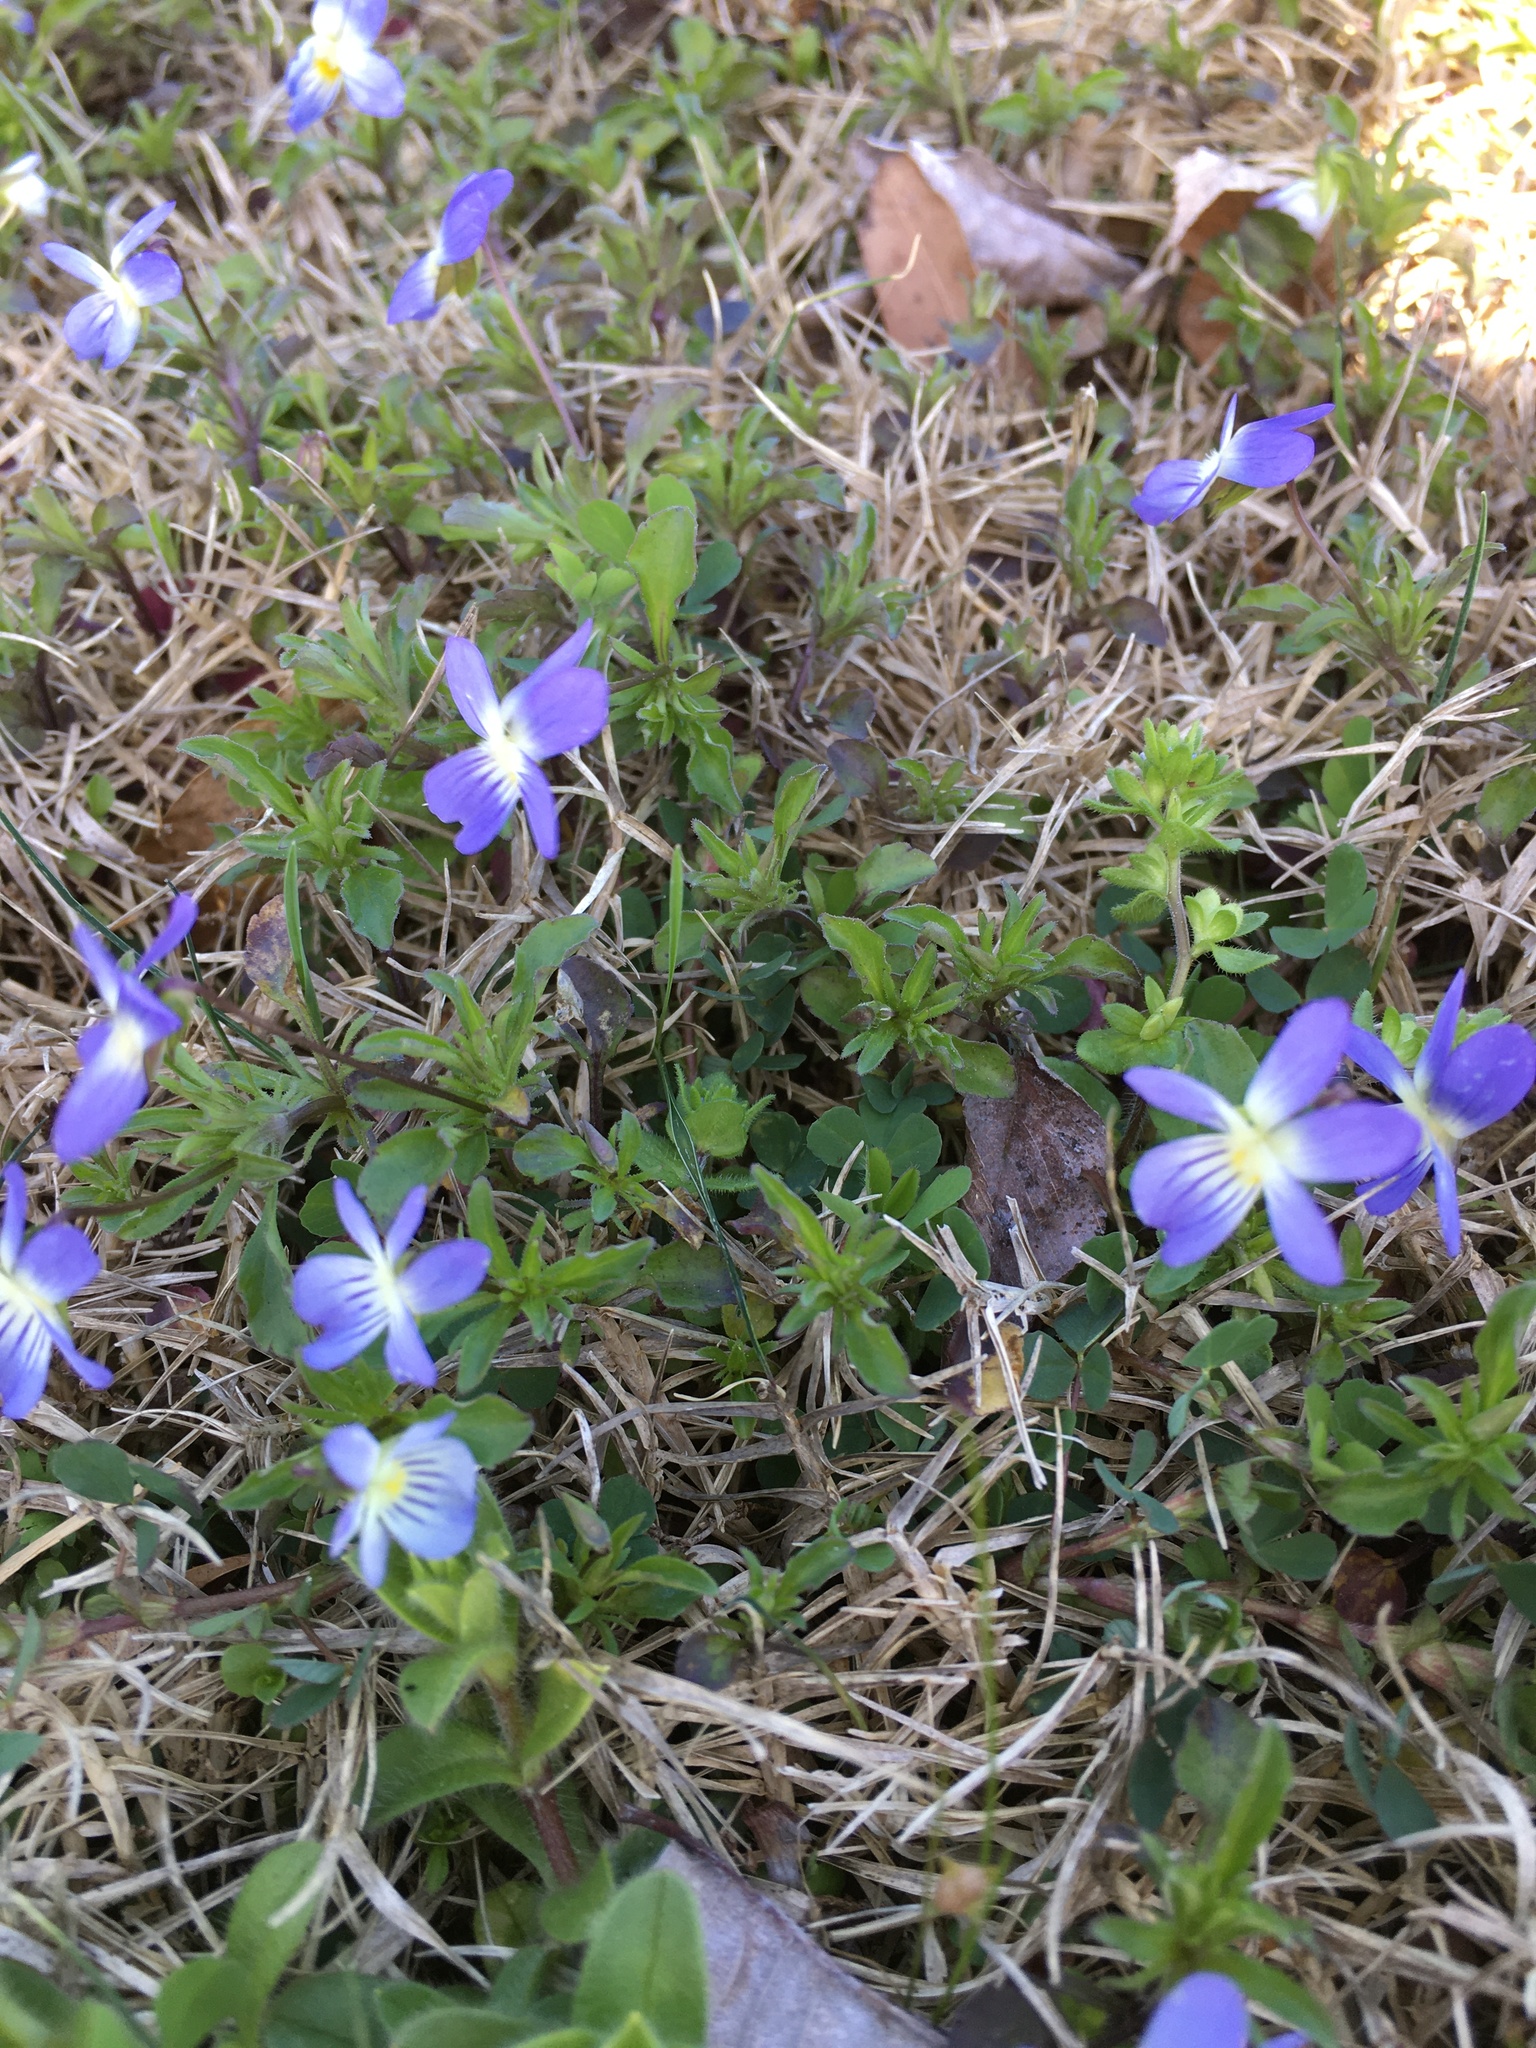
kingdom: Plantae
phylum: Tracheophyta
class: Magnoliopsida
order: Malpighiales
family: Violaceae
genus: Viola
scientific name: Viola rafinesquei
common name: American field pansy
